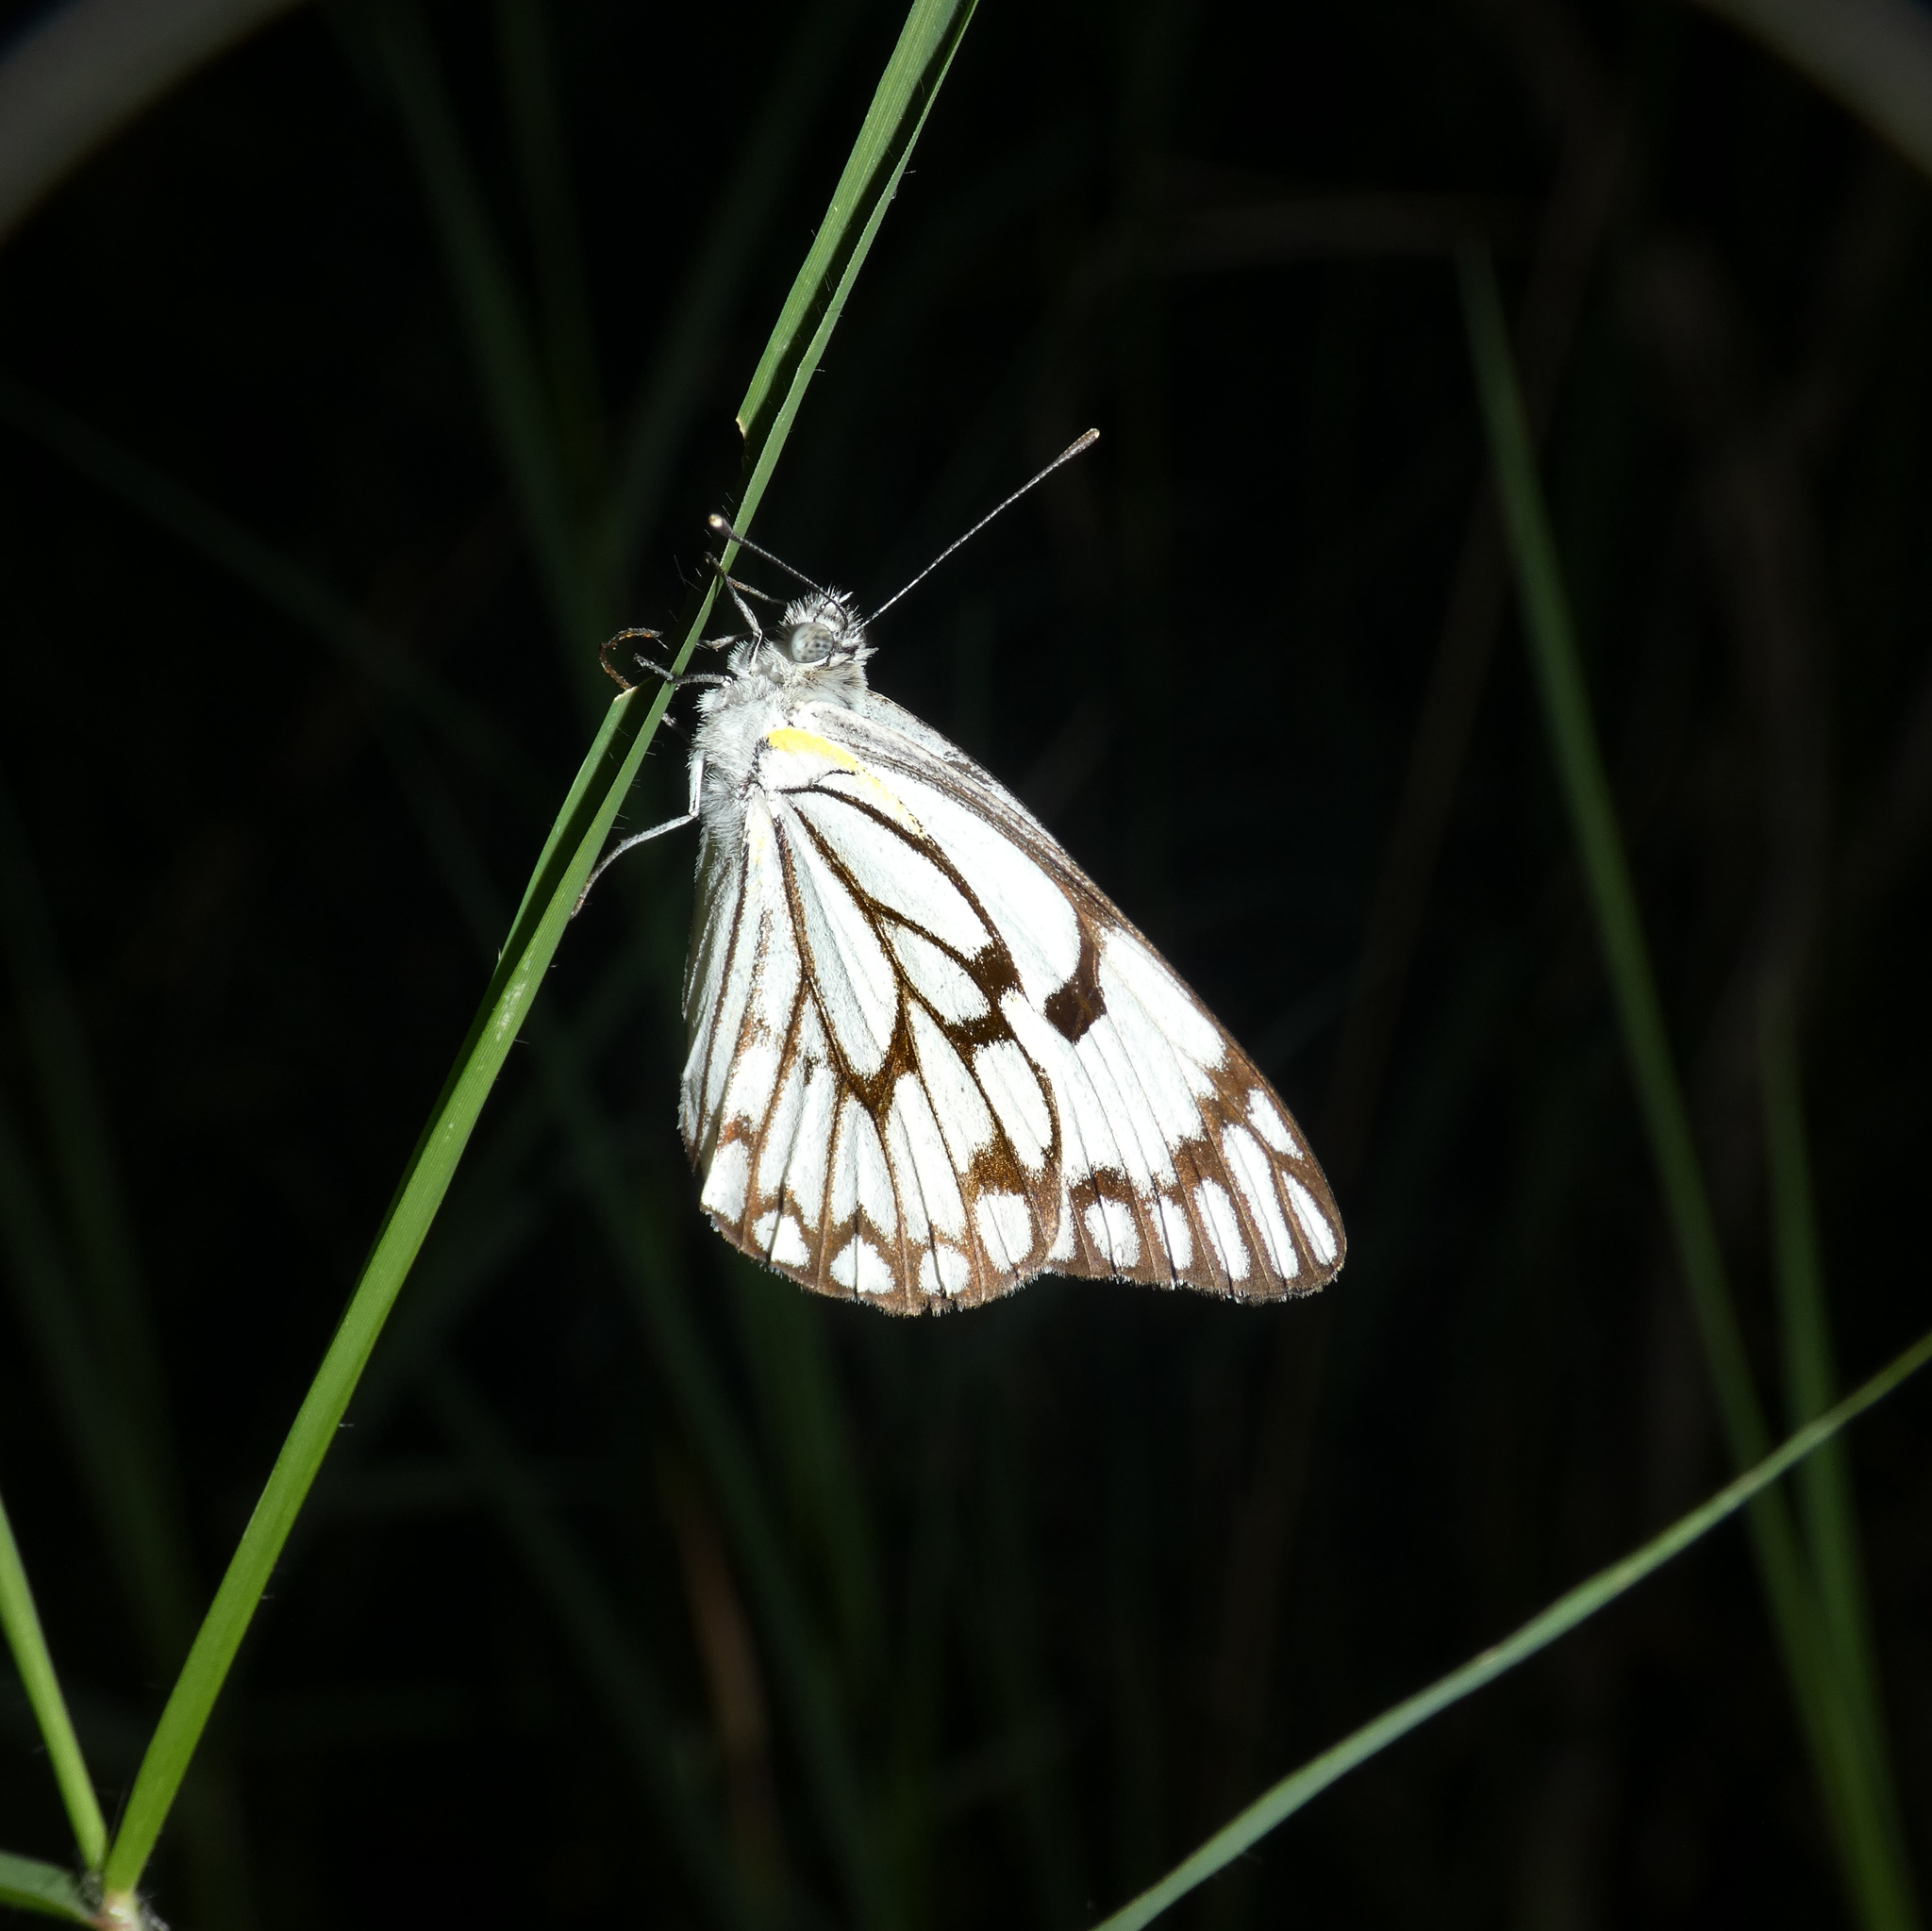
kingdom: Animalia
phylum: Arthropoda
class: Insecta
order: Lepidoptera
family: Pieridae
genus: Belenois
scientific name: Belenois aurota
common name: Brown-veined white
